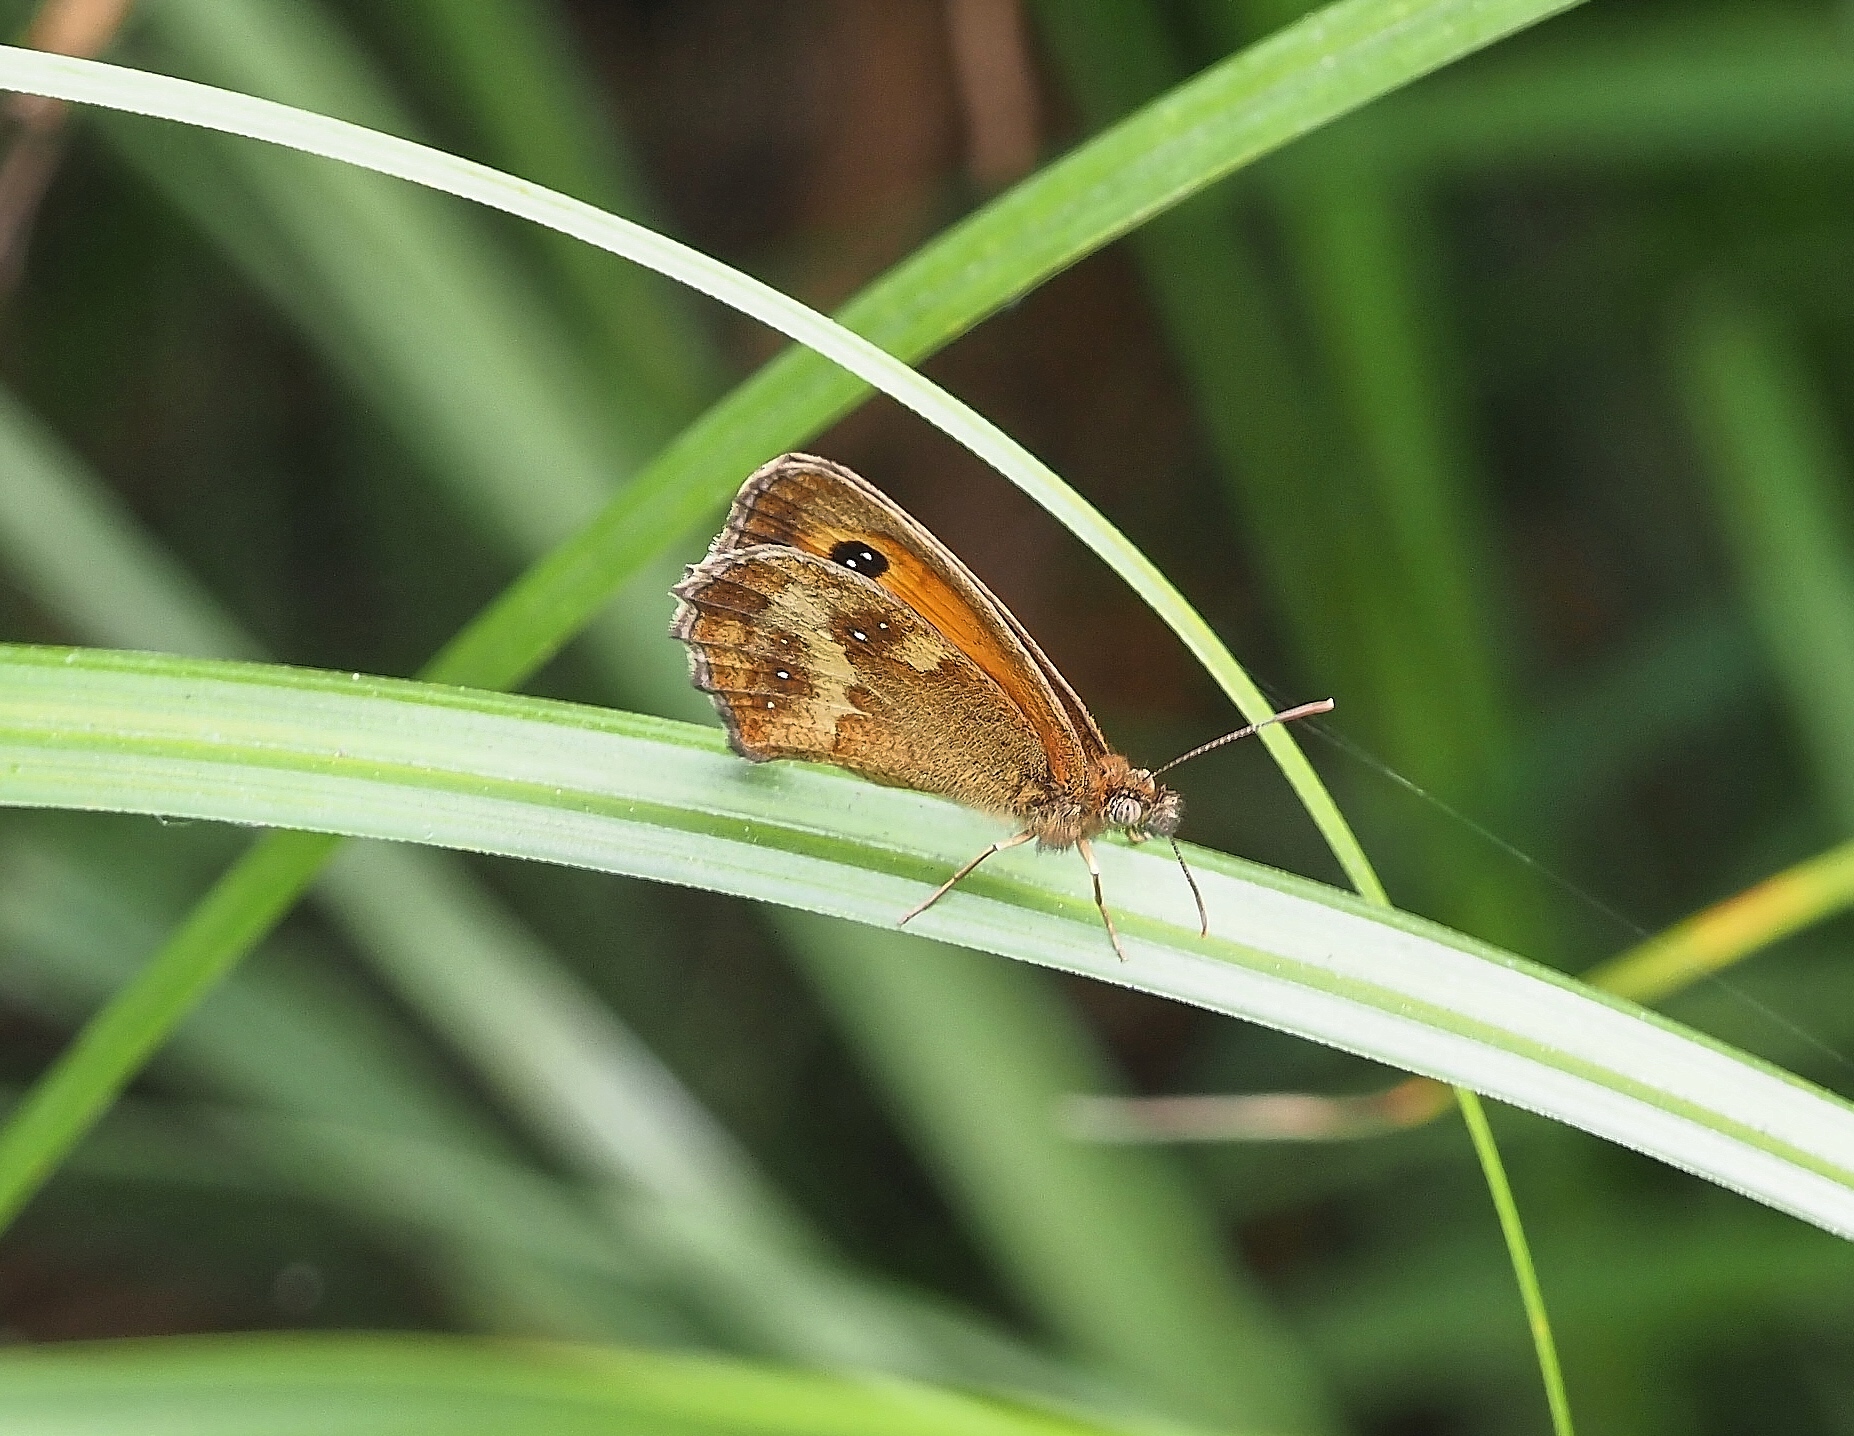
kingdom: Animalia
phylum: Arthropoda
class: Insecta
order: Lepidoptera
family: Nymphalidae
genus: Pyronia
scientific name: Pyronia tithonus
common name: Gatekeeper
